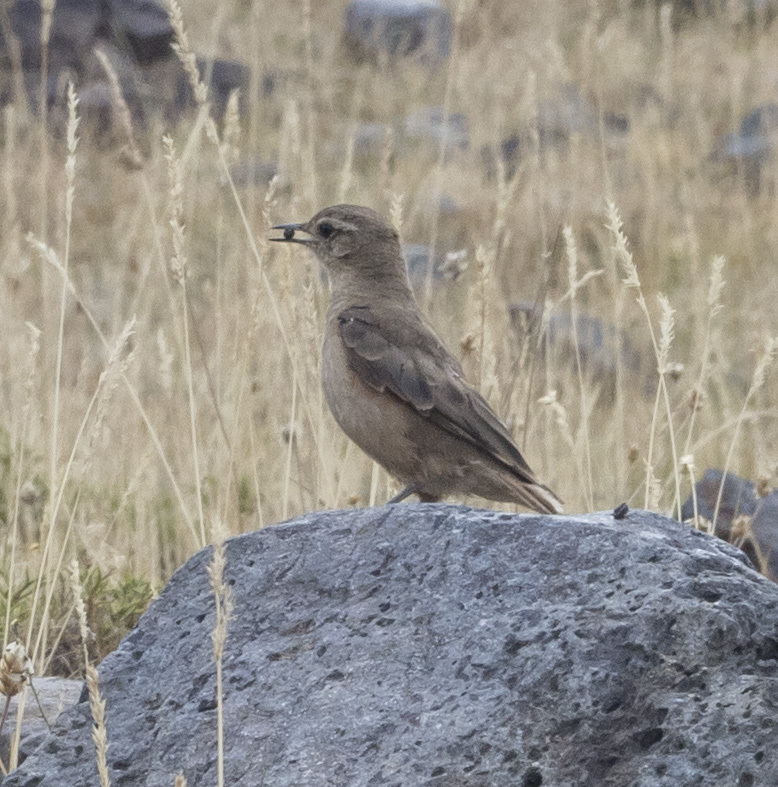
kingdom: Animalia
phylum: Chordata
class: Aves
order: Passeriformes
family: Furnariidae
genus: Geositta
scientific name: Geositta rufipennis
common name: Rufous-banded miner
